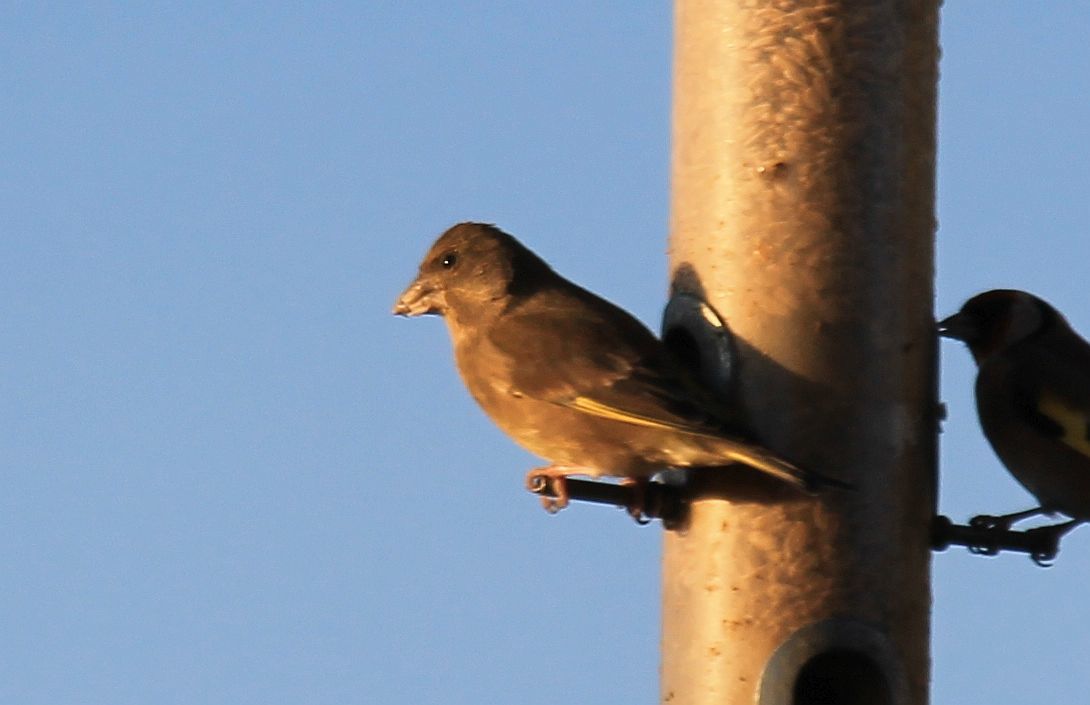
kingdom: Plantae
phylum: Tracheophyta
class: Liliopsida
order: Poales
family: Poaceae
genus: Chloris
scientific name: Chloris chloris
